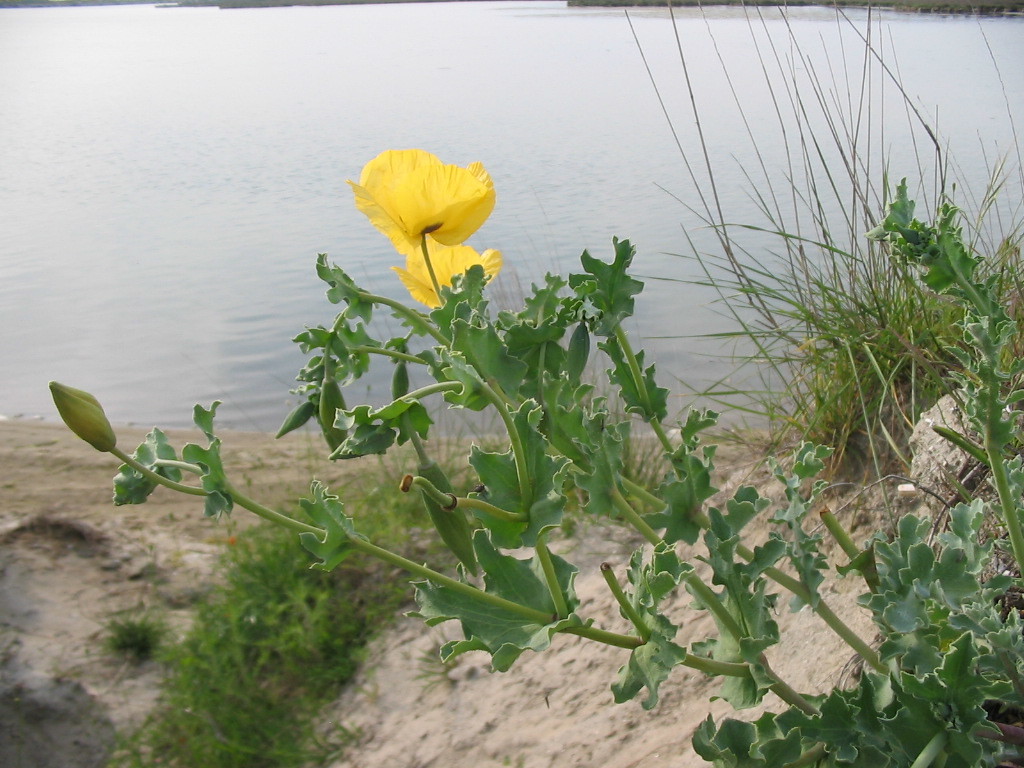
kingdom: Plantae
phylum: Tracheophyta
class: Magnoliopsida
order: Ranunculales
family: Papaveraceae
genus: Glaucium
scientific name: Glaucium flavum
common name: Yellow horned-poppy
